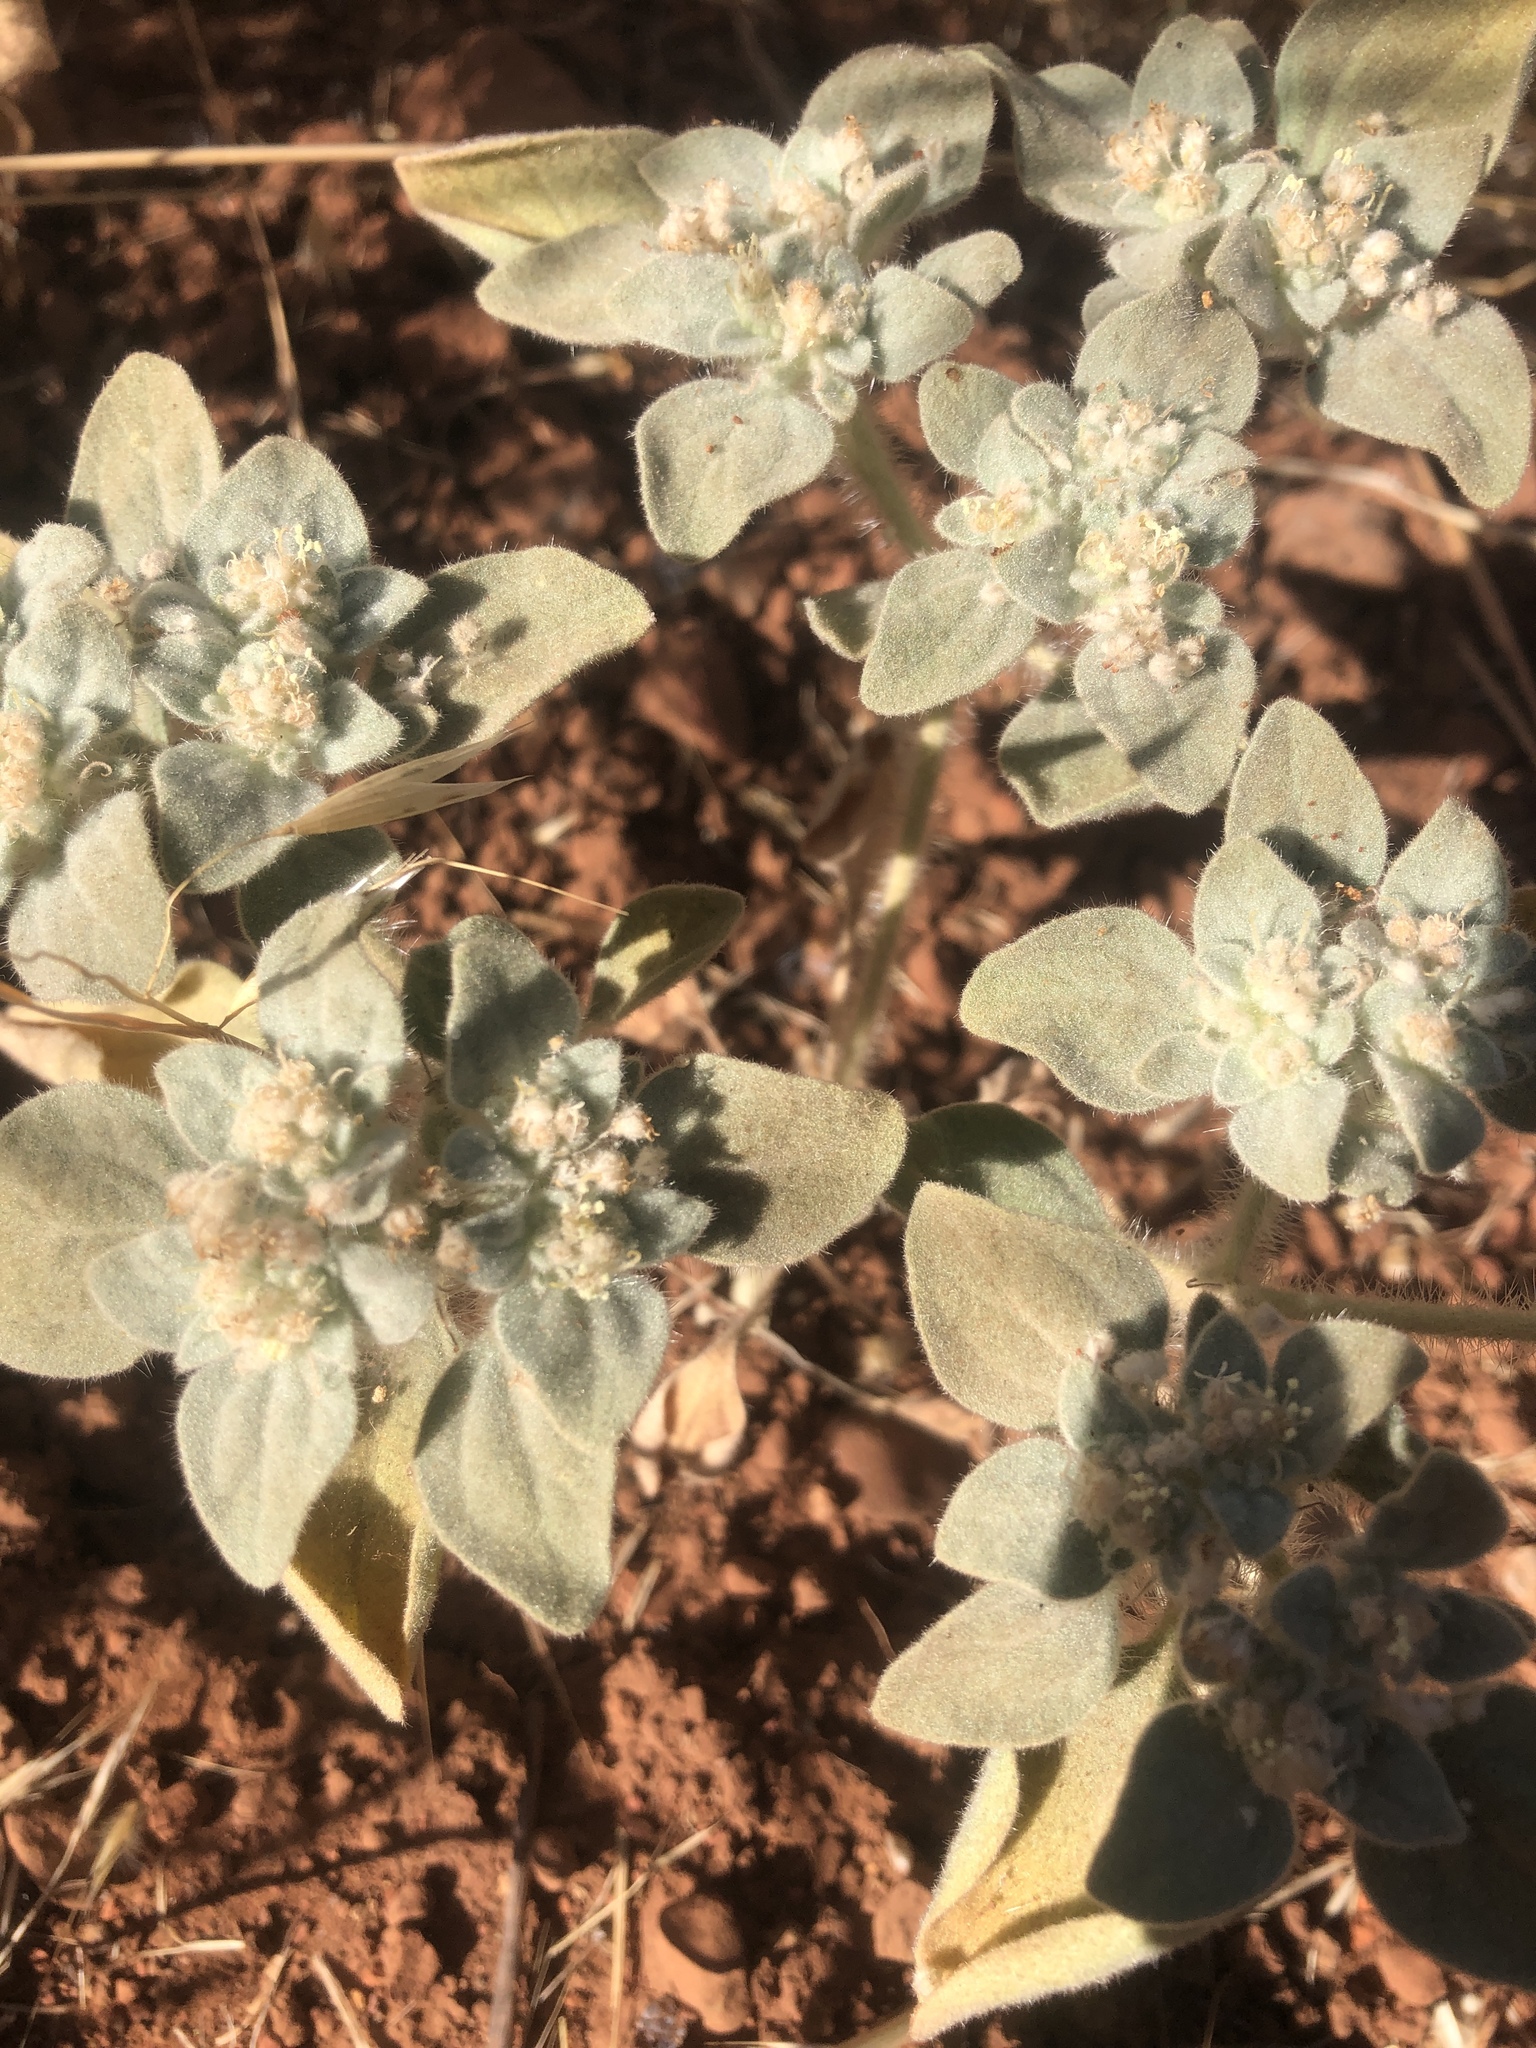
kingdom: Plantae
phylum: Tracheophyta
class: Magnoliopsida
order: Malpighiales
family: Euphorbiaceae
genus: Croton
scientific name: Croton setiger
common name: Dove weed
